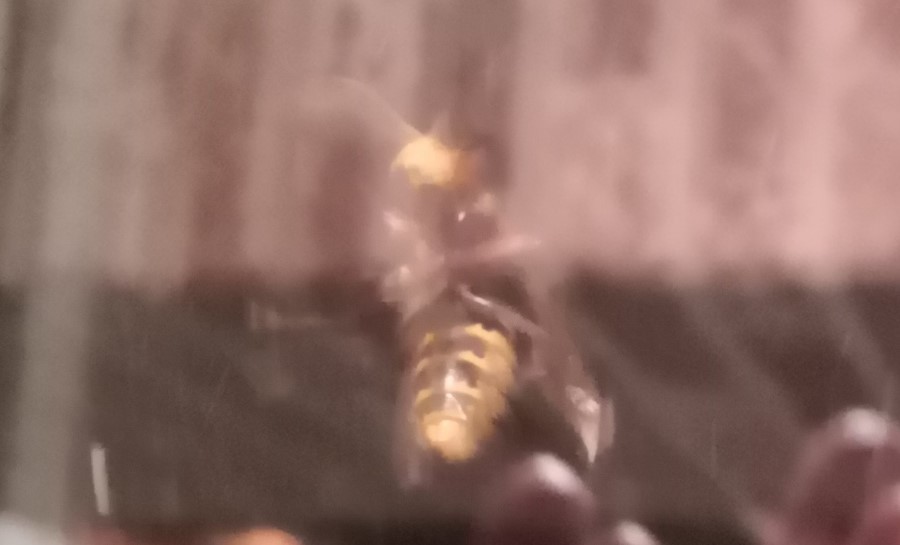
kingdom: Animalia
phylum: Arthropoda
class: Insecta
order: Hymenoptera
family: Vespidae
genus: Vespa
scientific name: Vespa crabro
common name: Hornet
